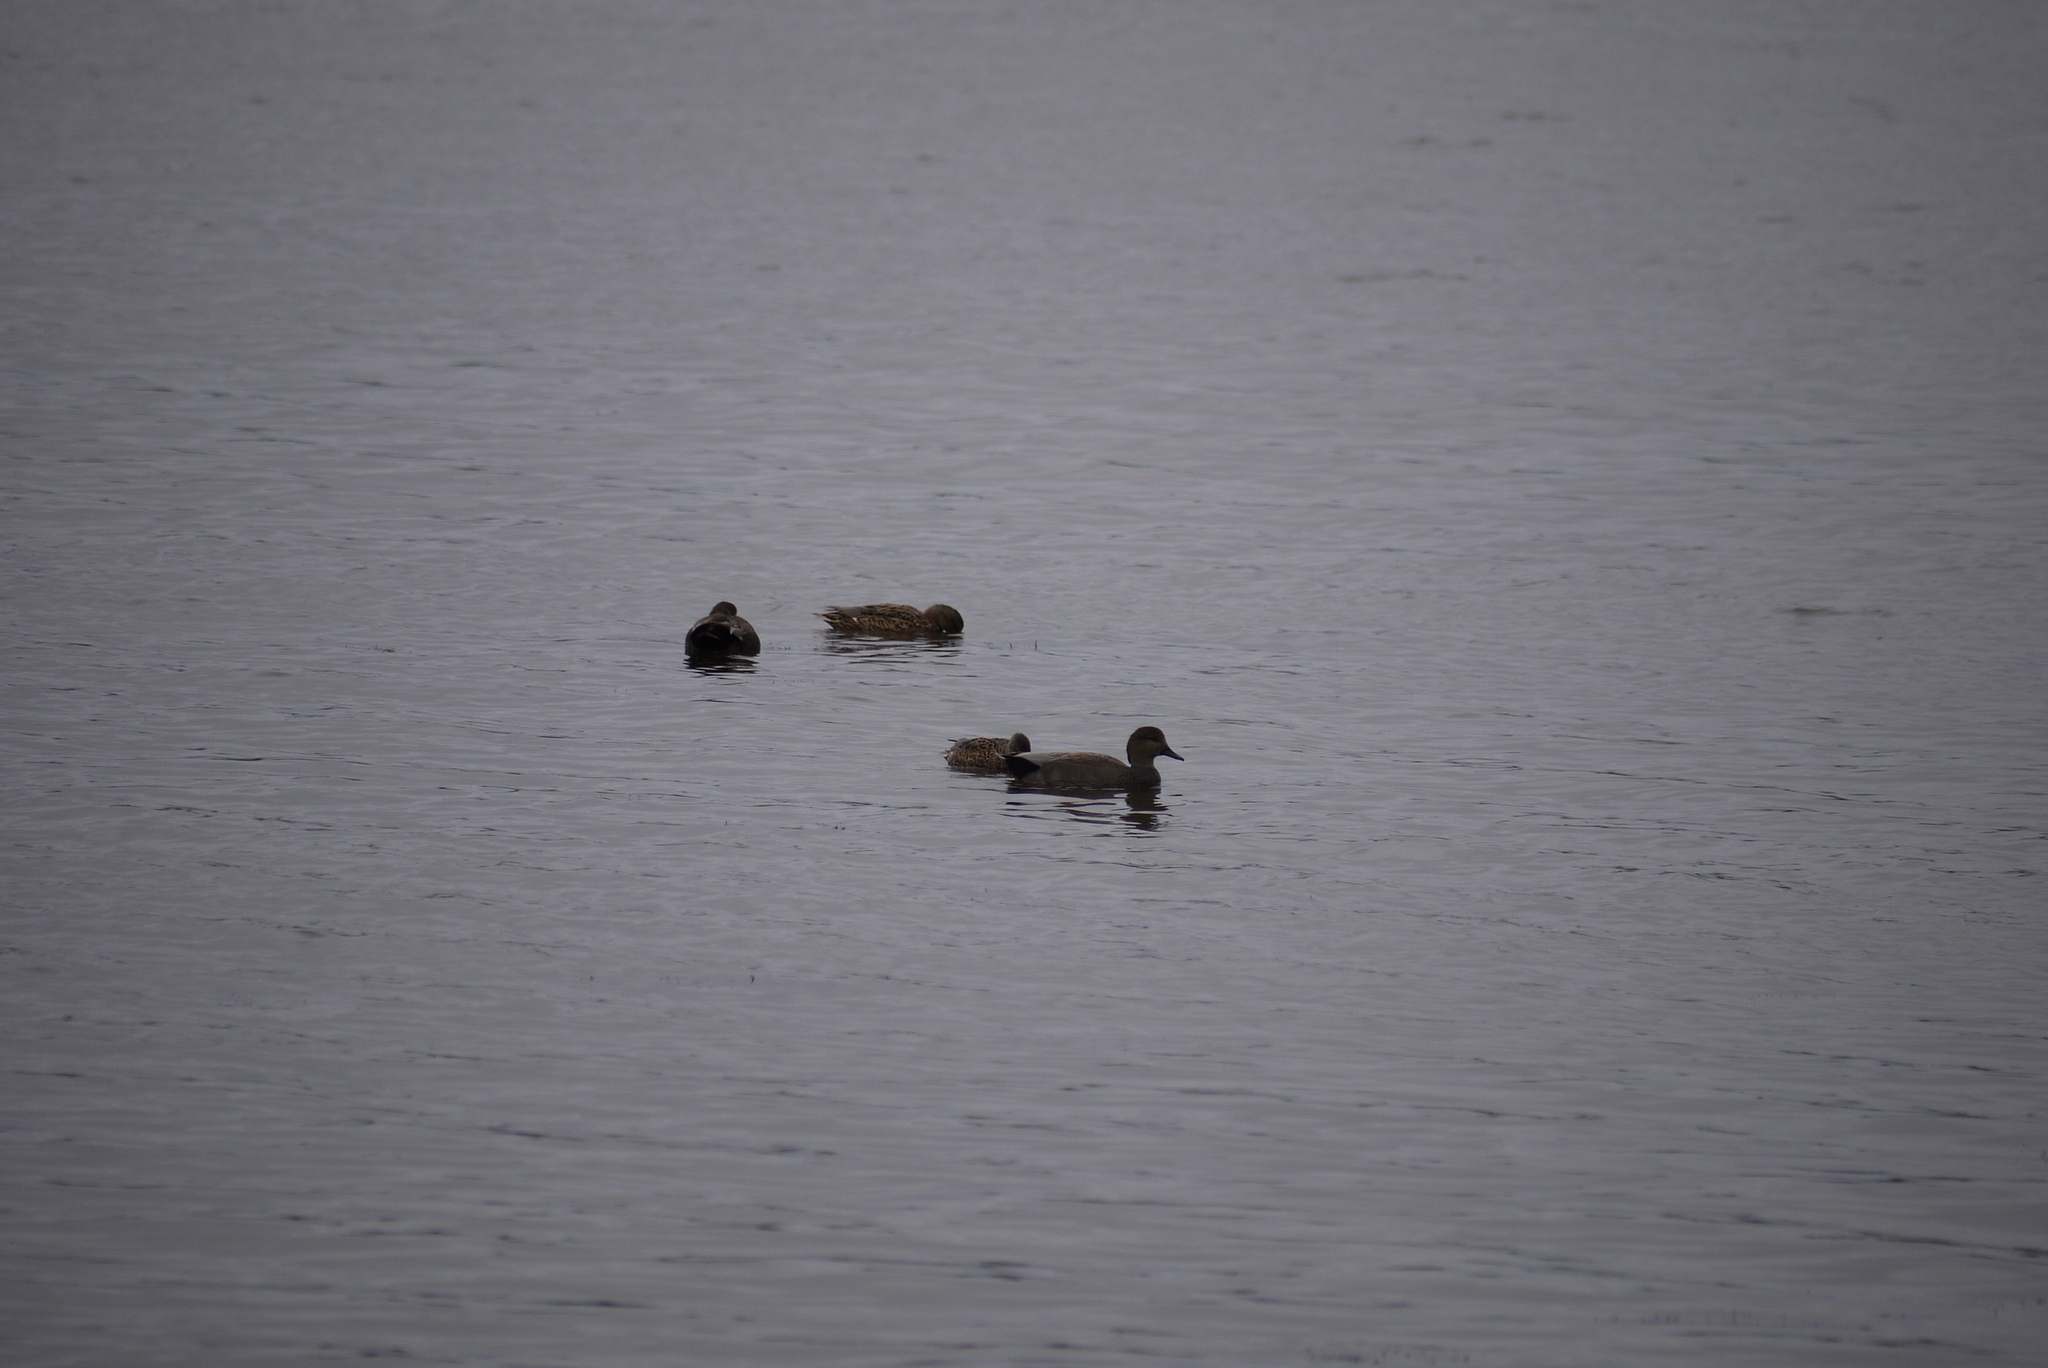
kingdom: Animalia
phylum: Chordata
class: Aves
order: Anseriformes
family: Anatidae
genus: Mareca
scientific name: Mareca strepera
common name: Gadwall
